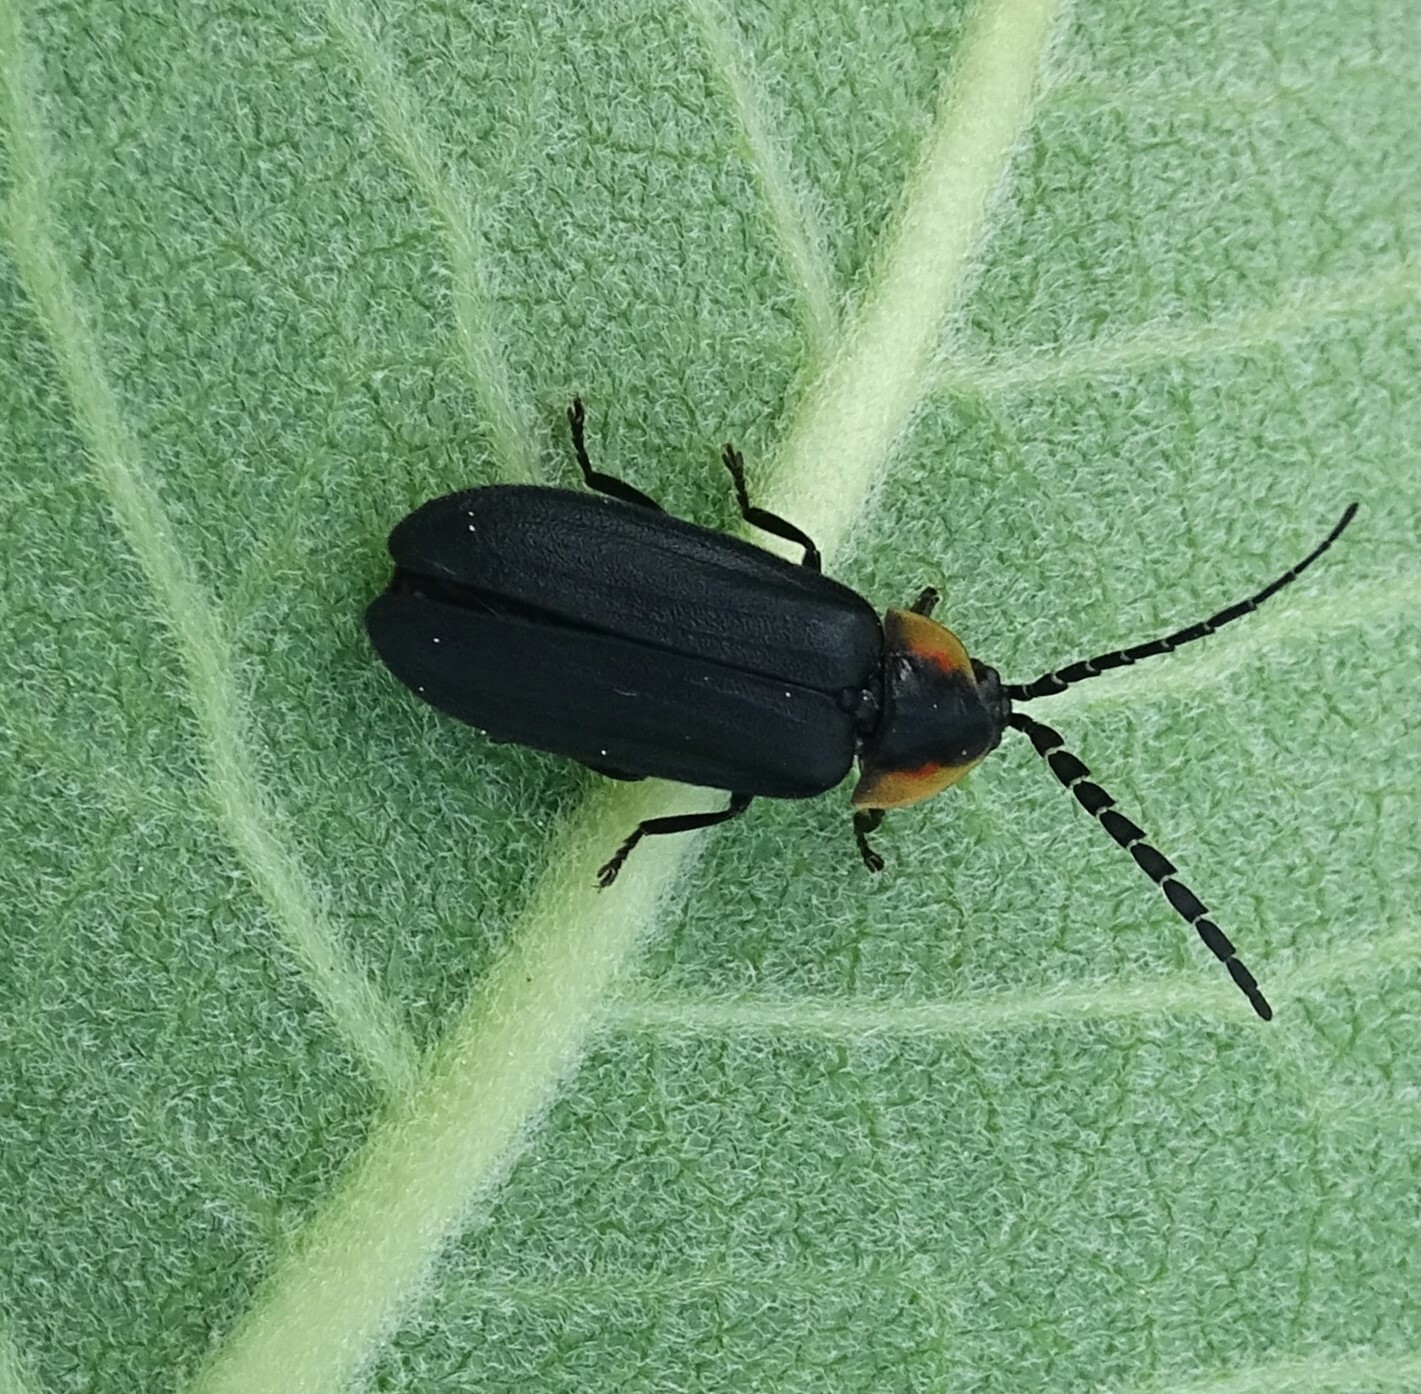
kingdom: Animalia
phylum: Arthropoda
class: Insecta
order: Coleoptera
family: Lampyridae
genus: Lucidota
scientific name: Lucidota atra
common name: Black firefly
